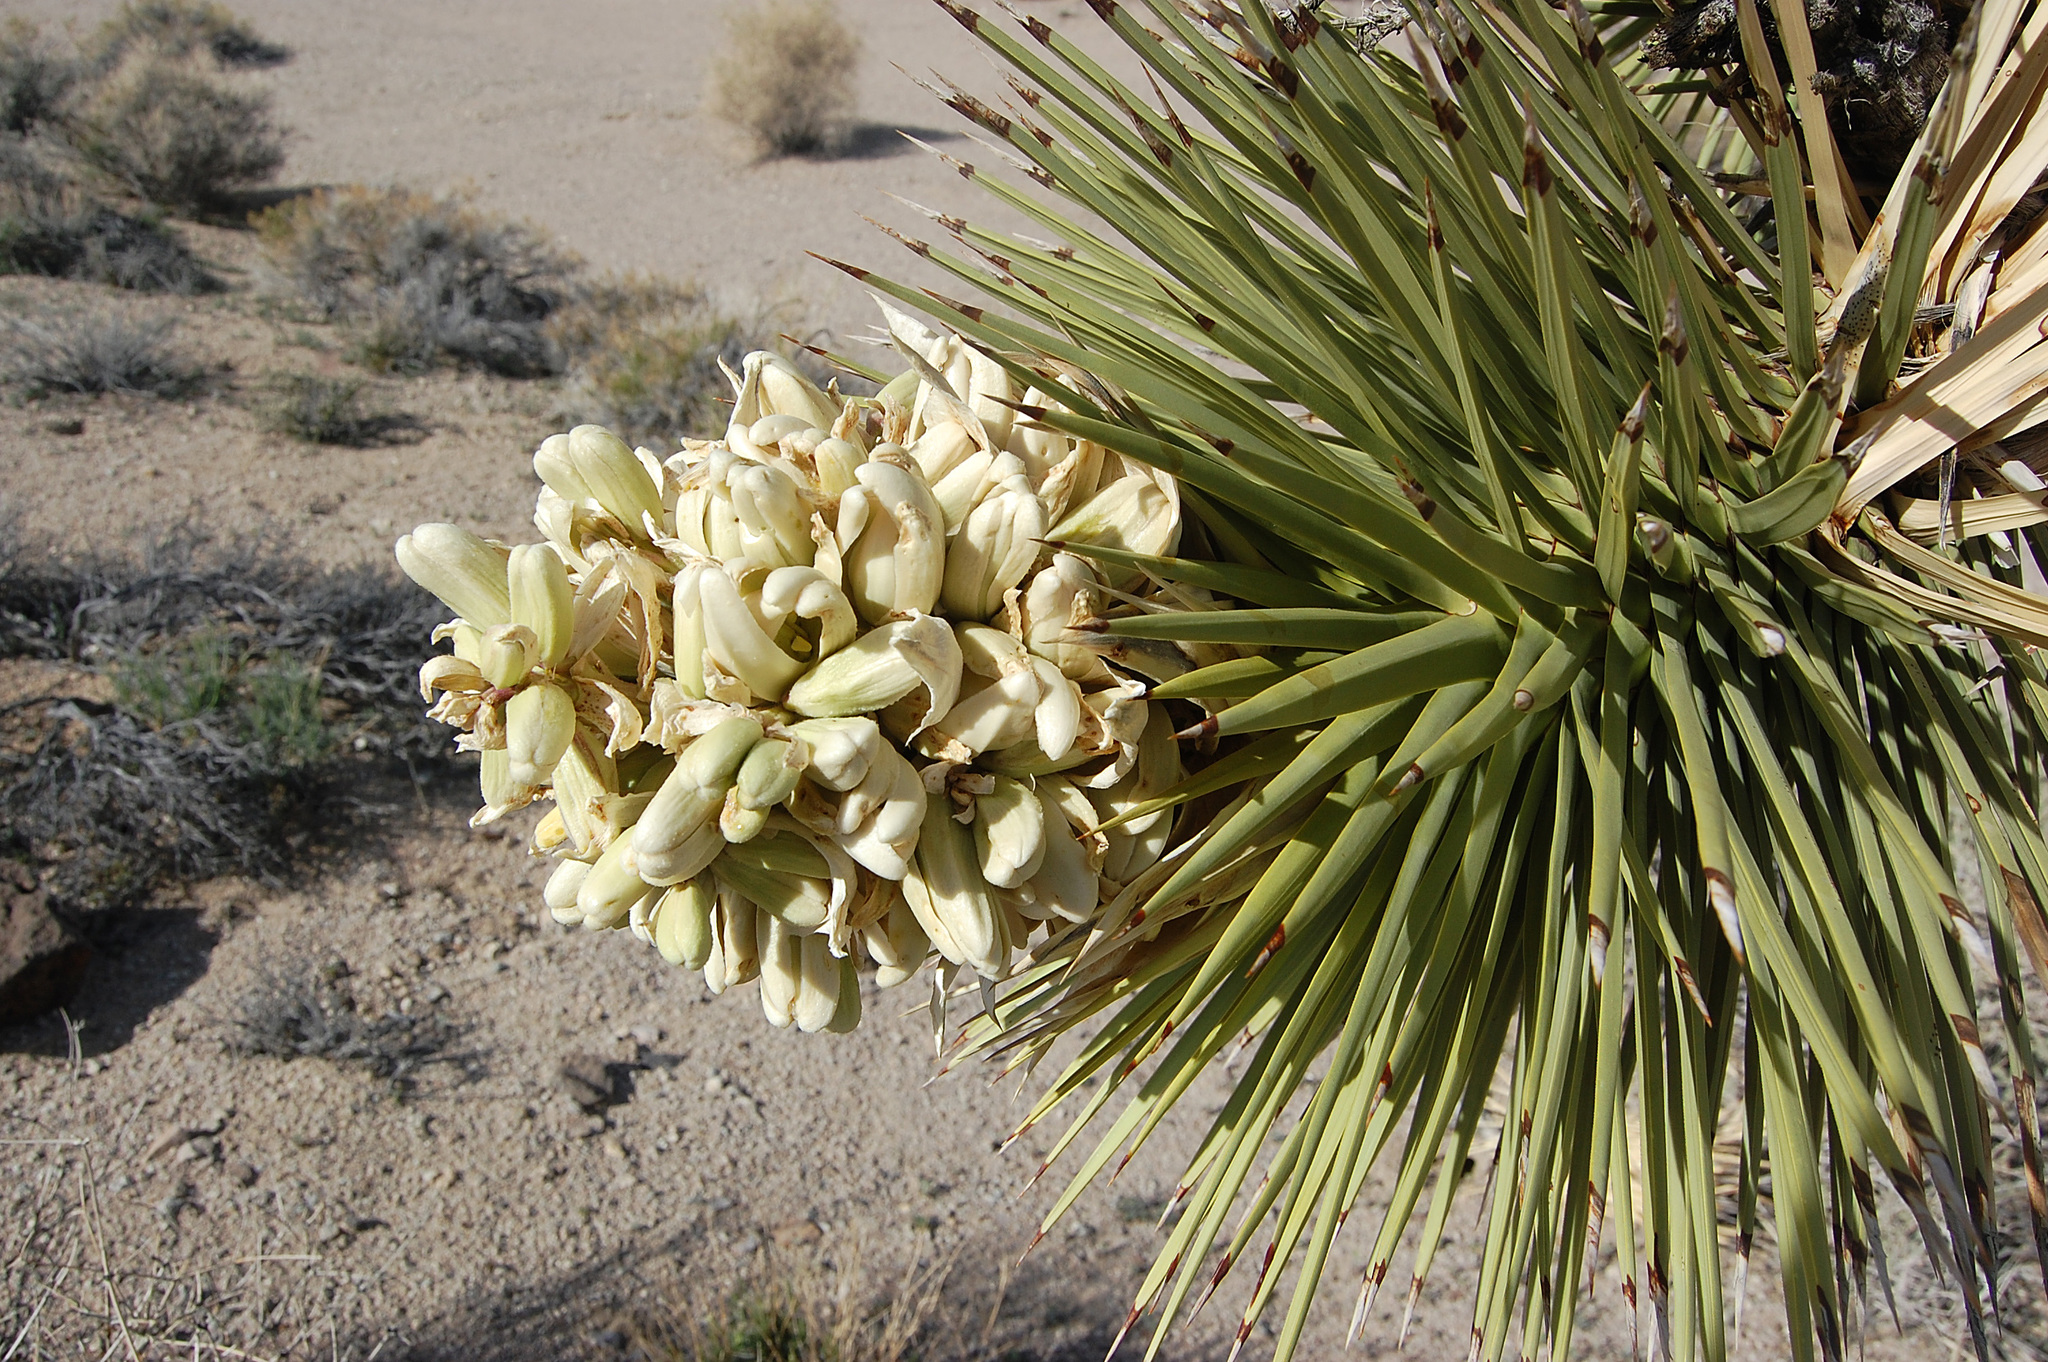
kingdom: Plantae
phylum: Tracheophyta
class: Liliopsida
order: Asparagales
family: Asparagaceae
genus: Yucca
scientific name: Yucca brevifolia
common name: Joshua tree
